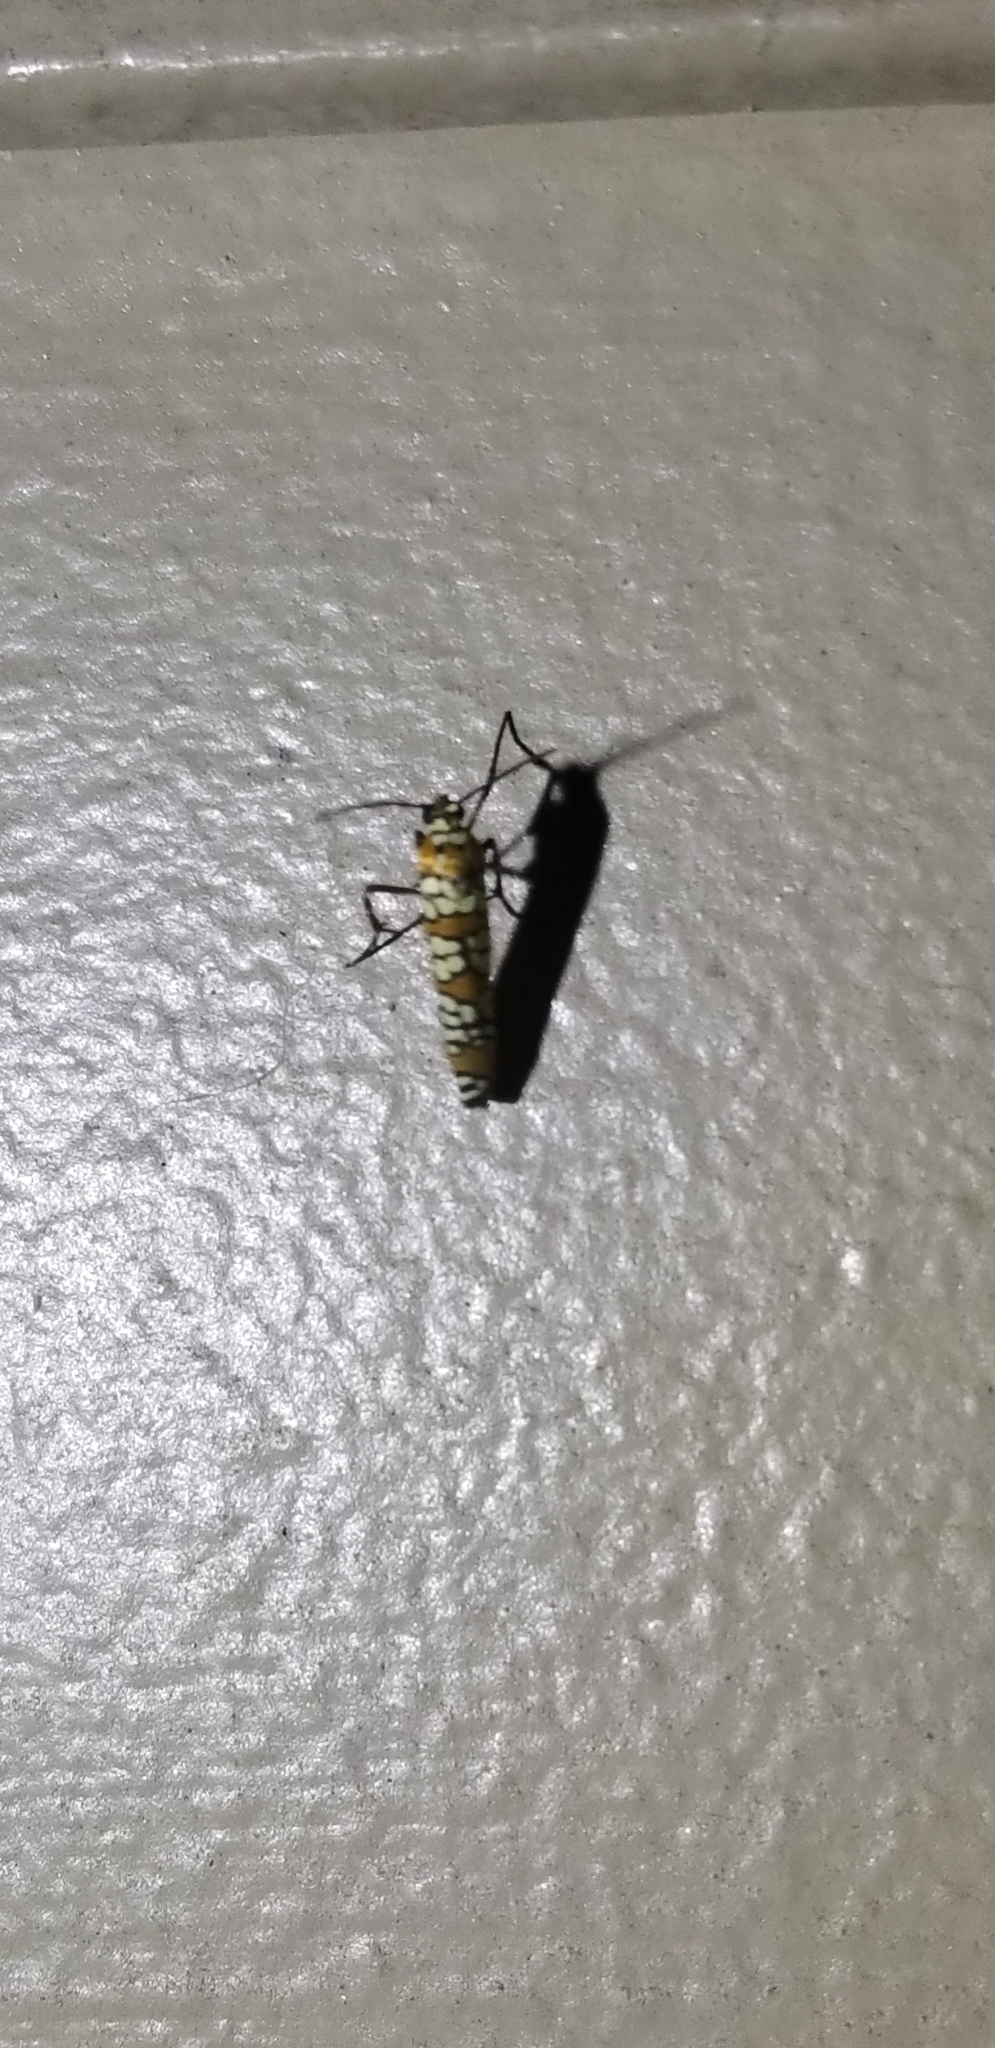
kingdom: Animalia
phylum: Arthropoda
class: Insecta
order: Lepidoptera
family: Attevidae
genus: Atteva
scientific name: Atteva punctella
